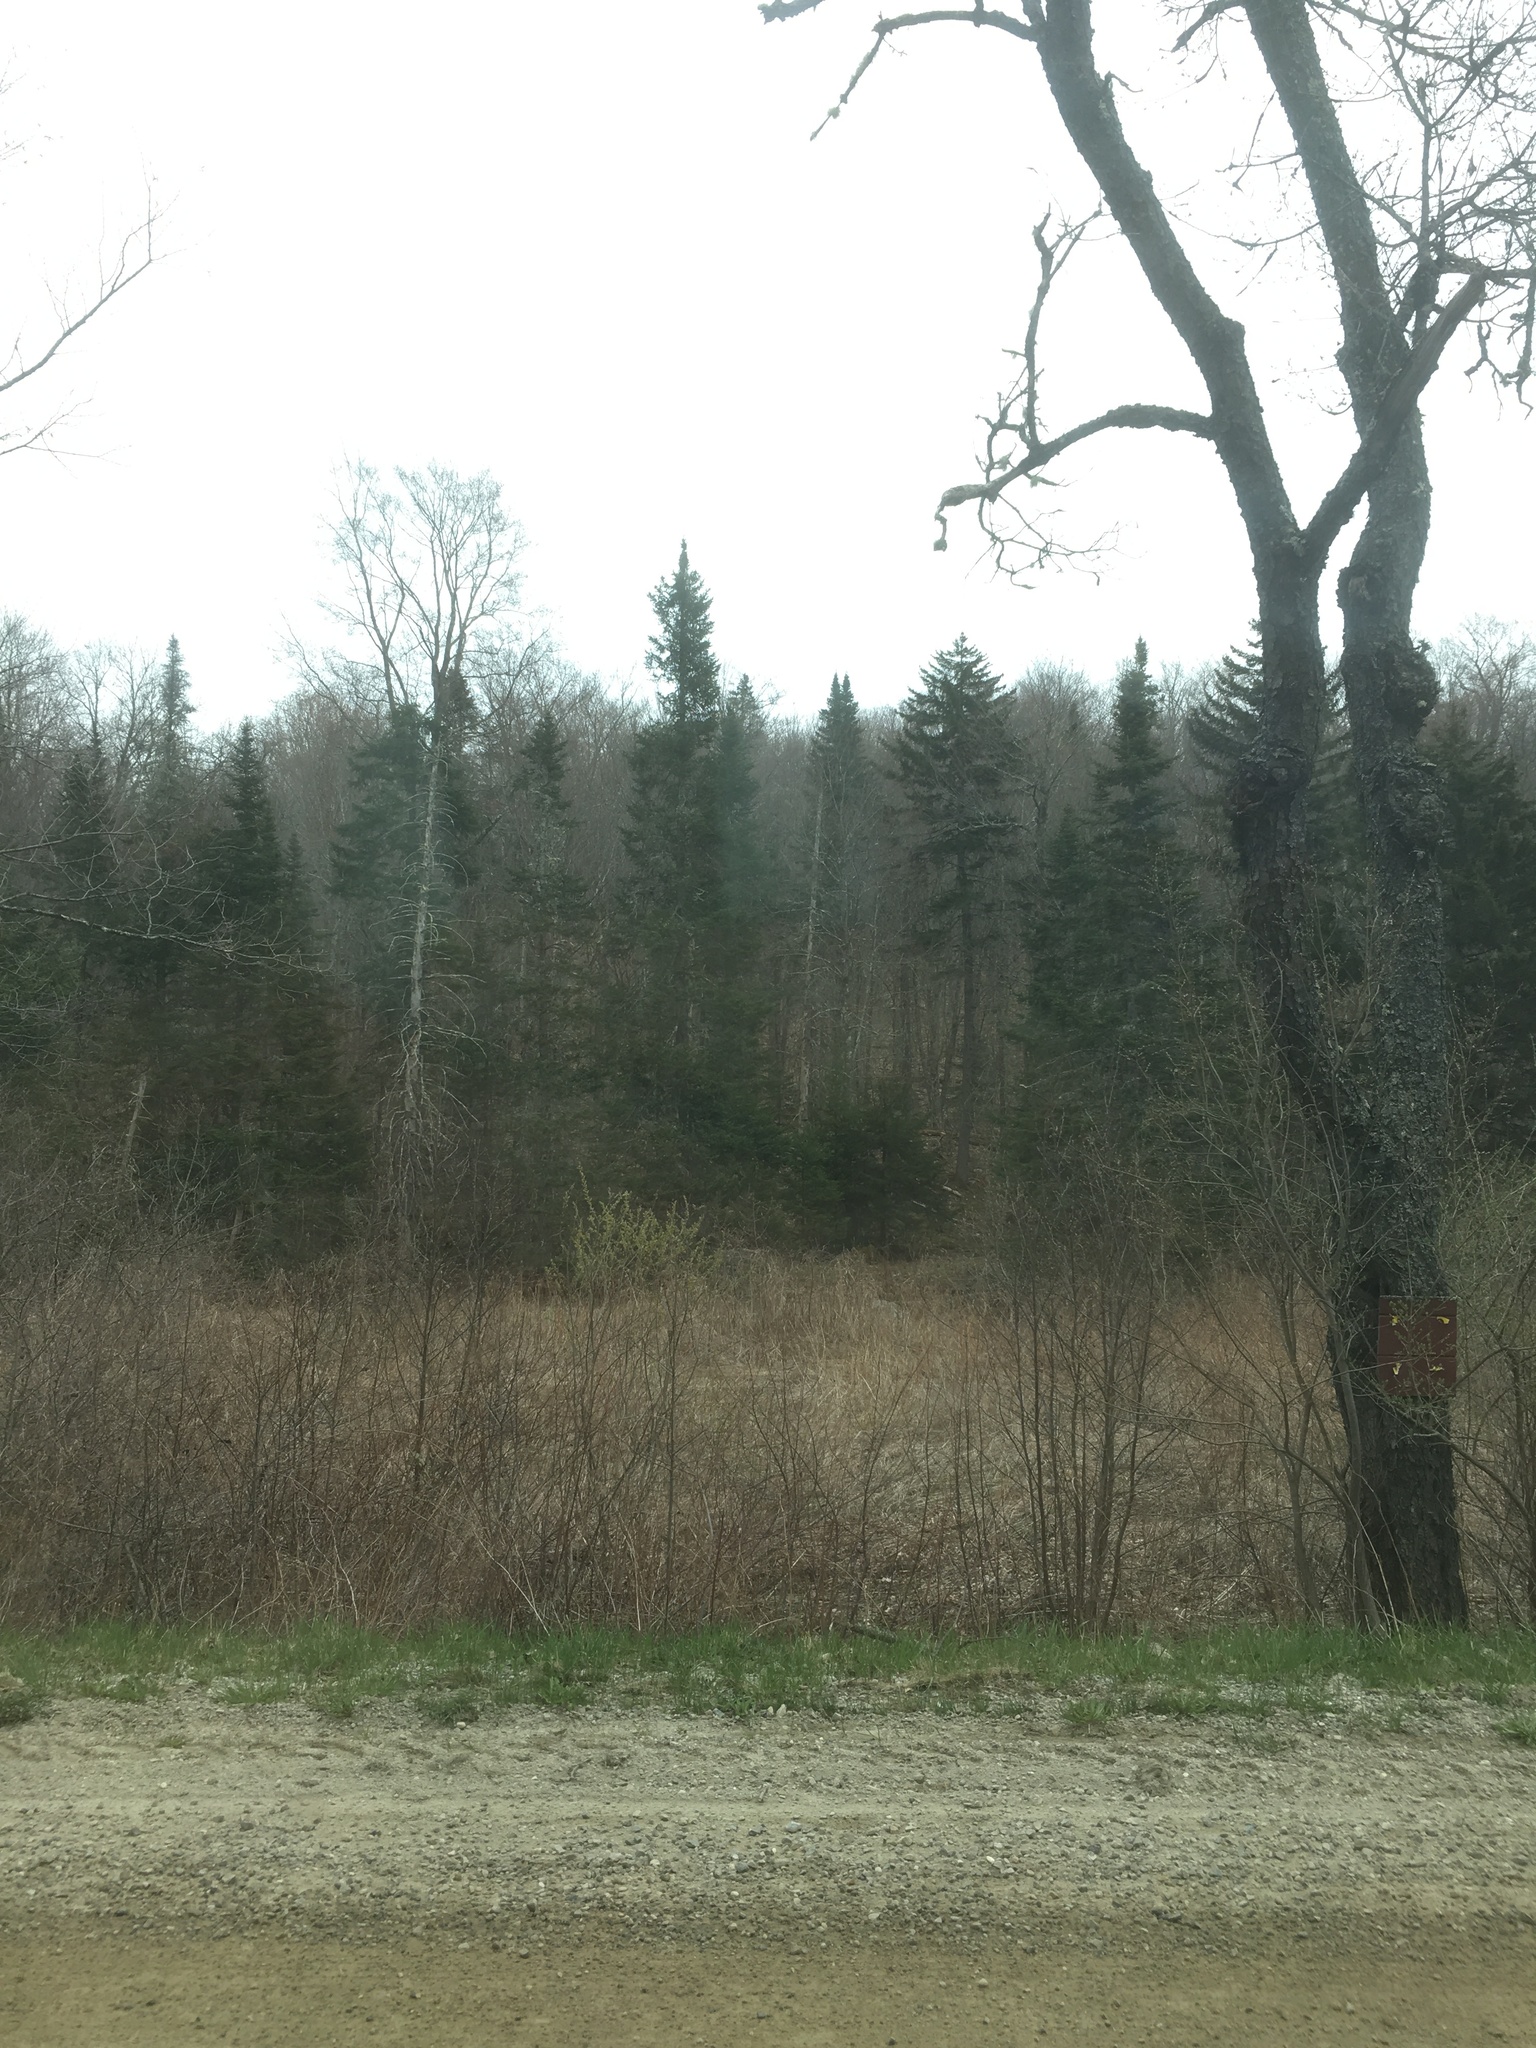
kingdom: Plantae
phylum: Tracheophyta
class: Pinopsida
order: Pinales
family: Pinaceae
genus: Abies
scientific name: Abies balsamea
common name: Balsam fir
